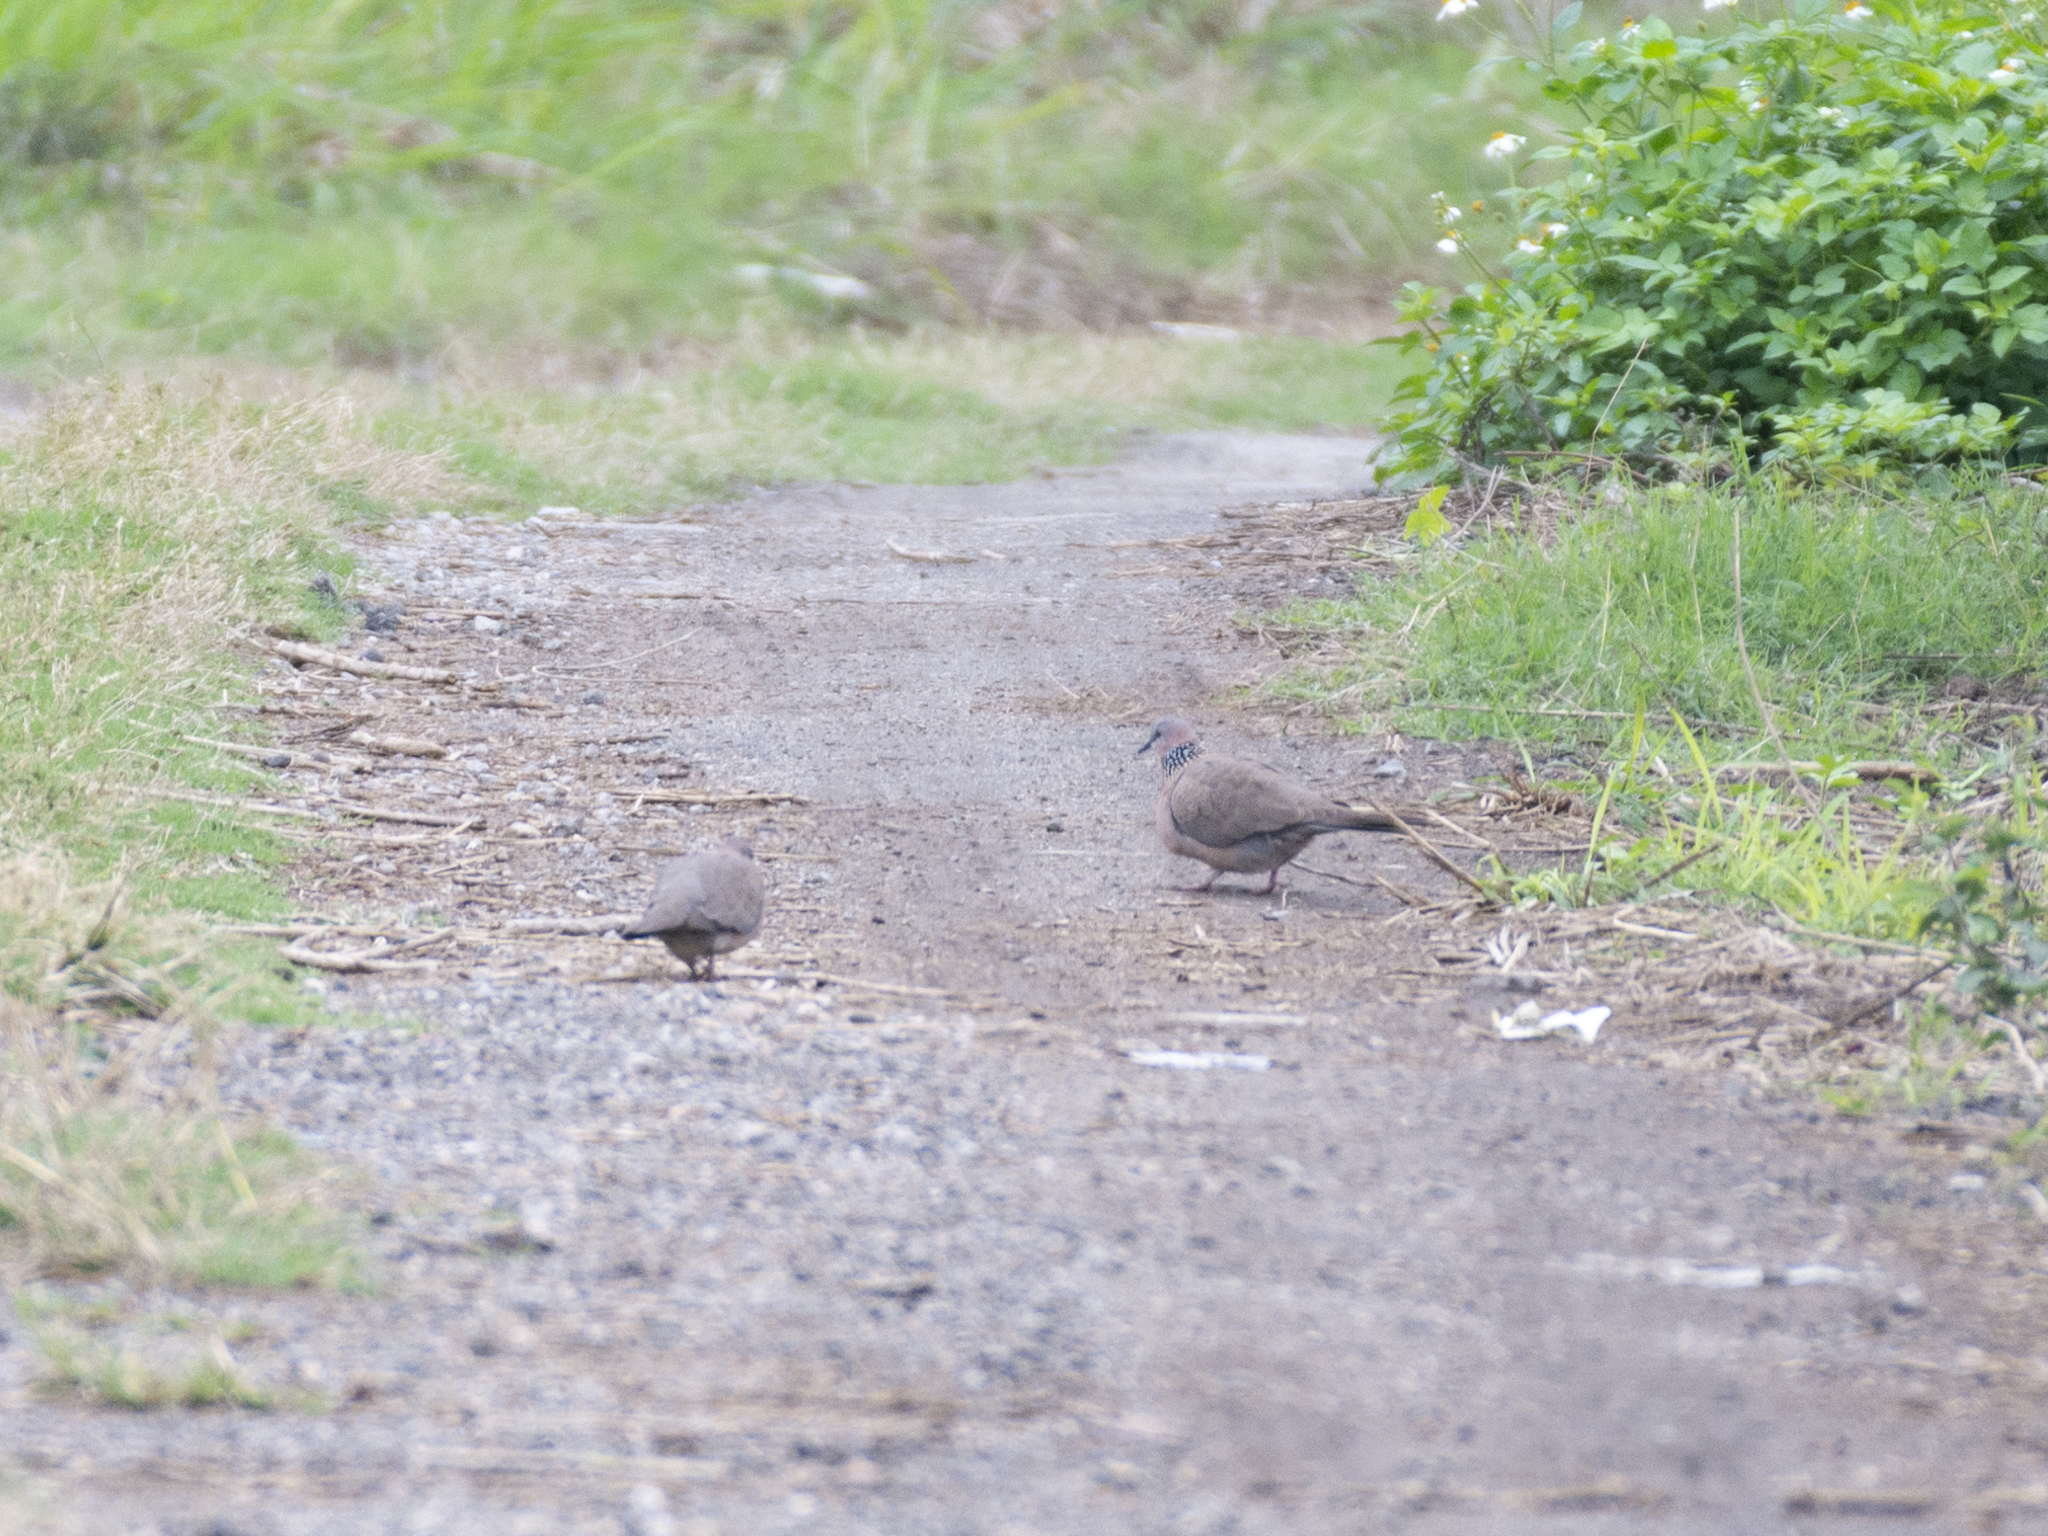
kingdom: Animalia
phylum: Chordata
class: Aves
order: Columbiformes
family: Columbidae
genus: Spilopelia
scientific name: Spilopelia chinensis
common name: Spotted dove
